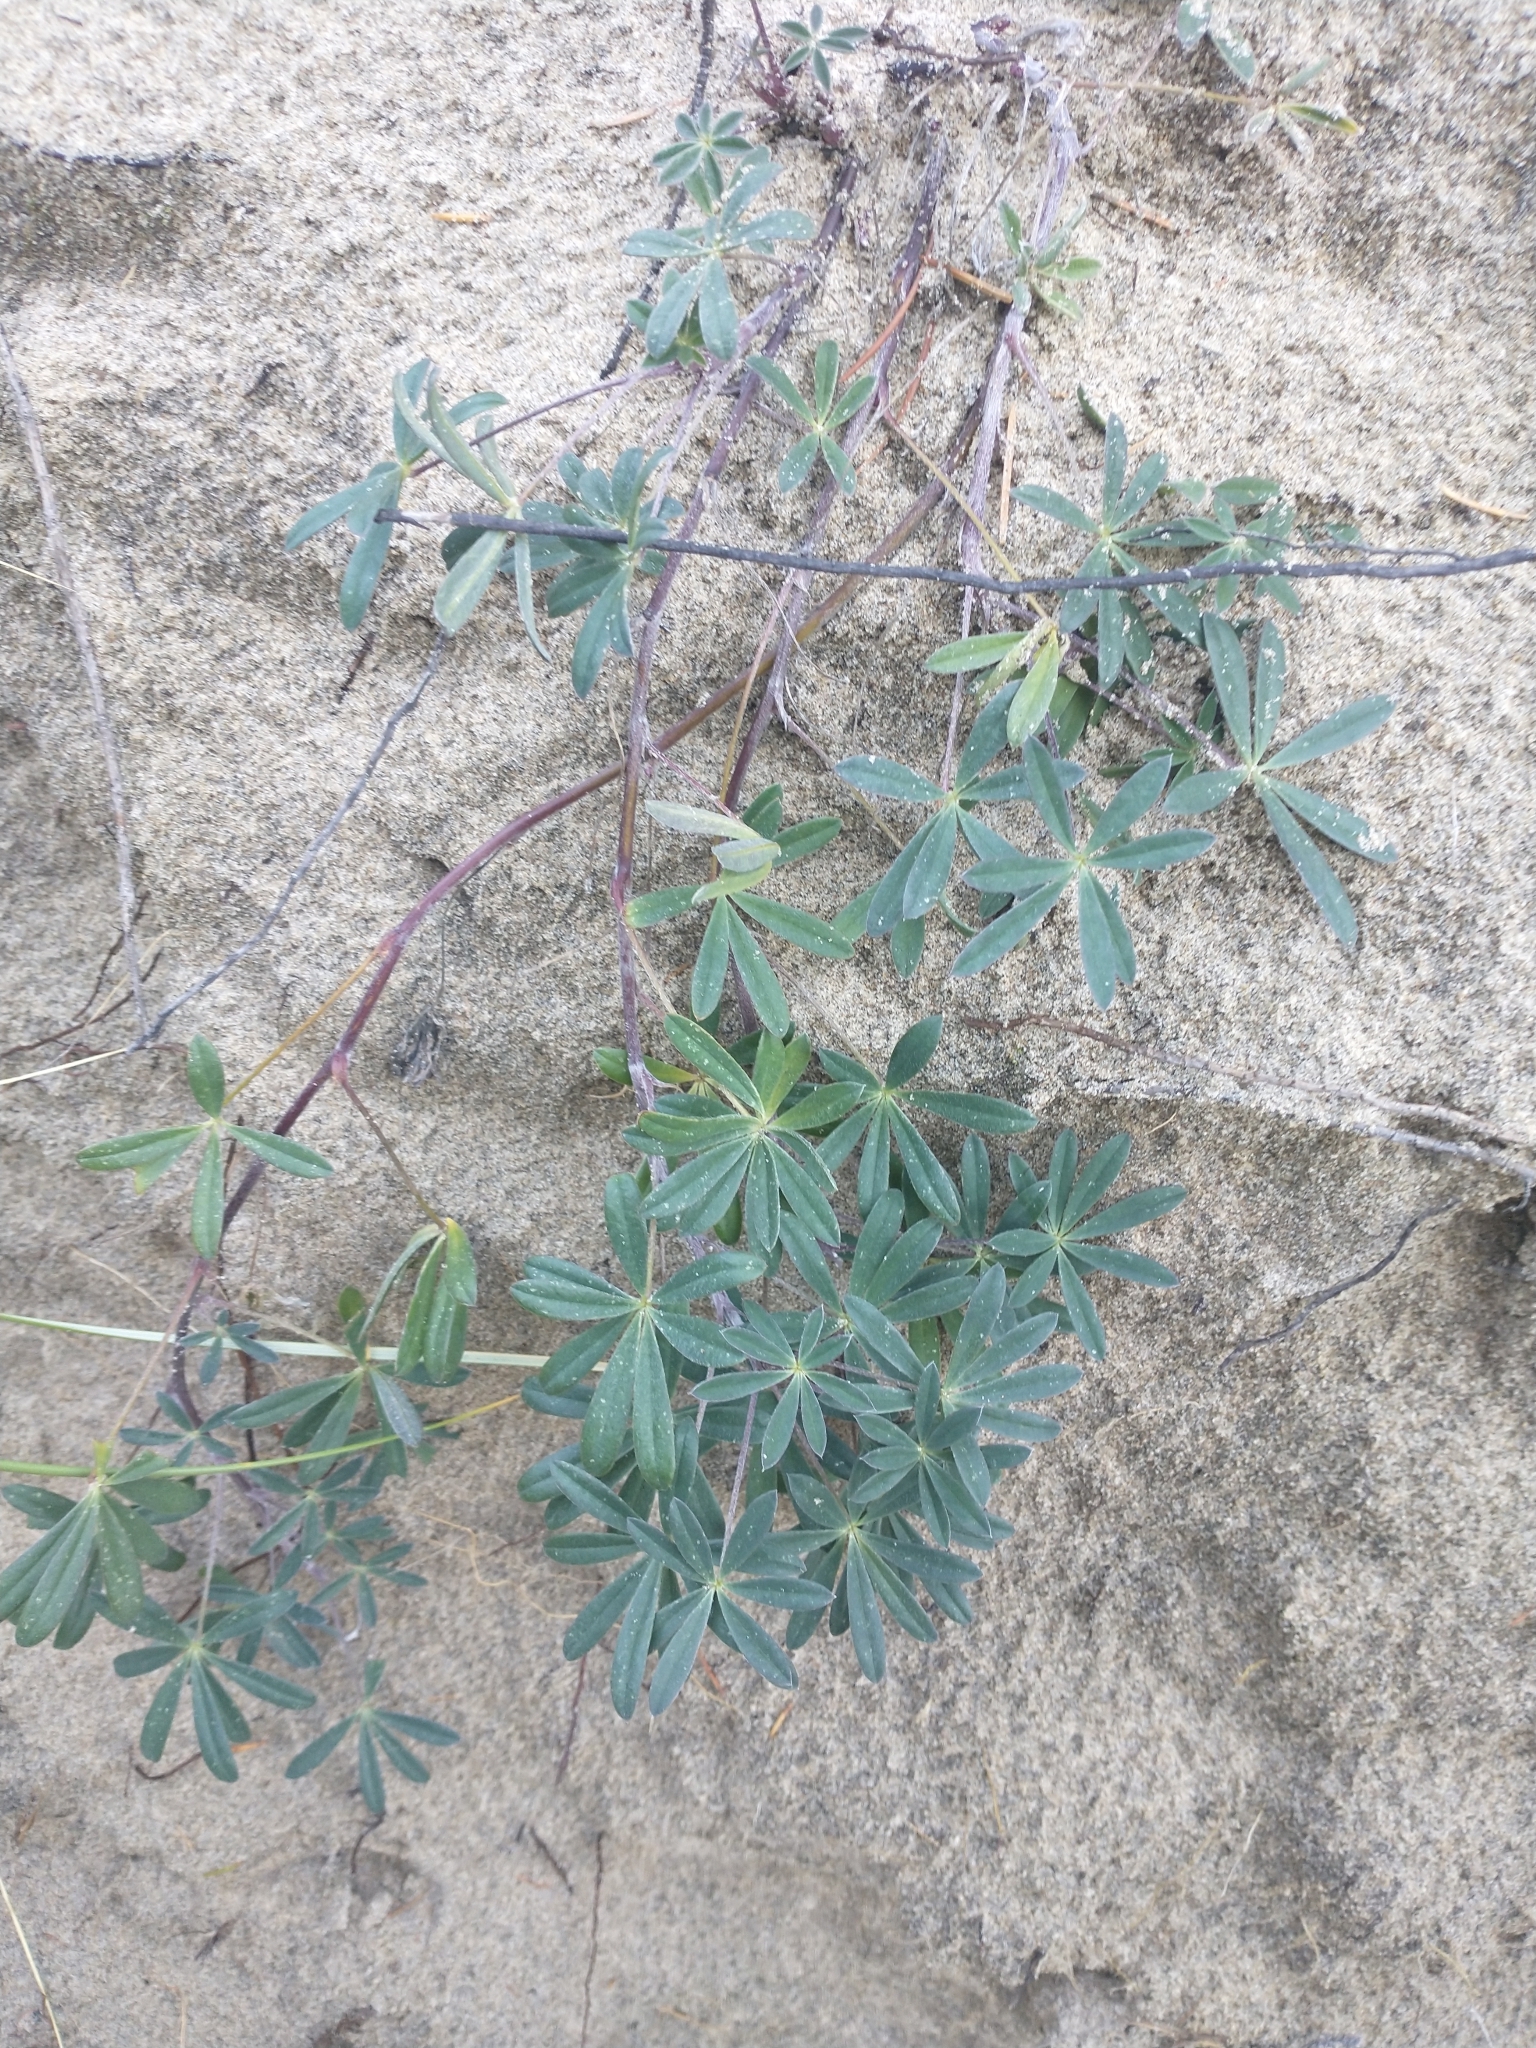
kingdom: Plantae
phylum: Tracheophyta
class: Magnoliopsida
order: Fabales
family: Fabaceae
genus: Lupinus
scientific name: Lupinus littoralis
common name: Seashore lupine
